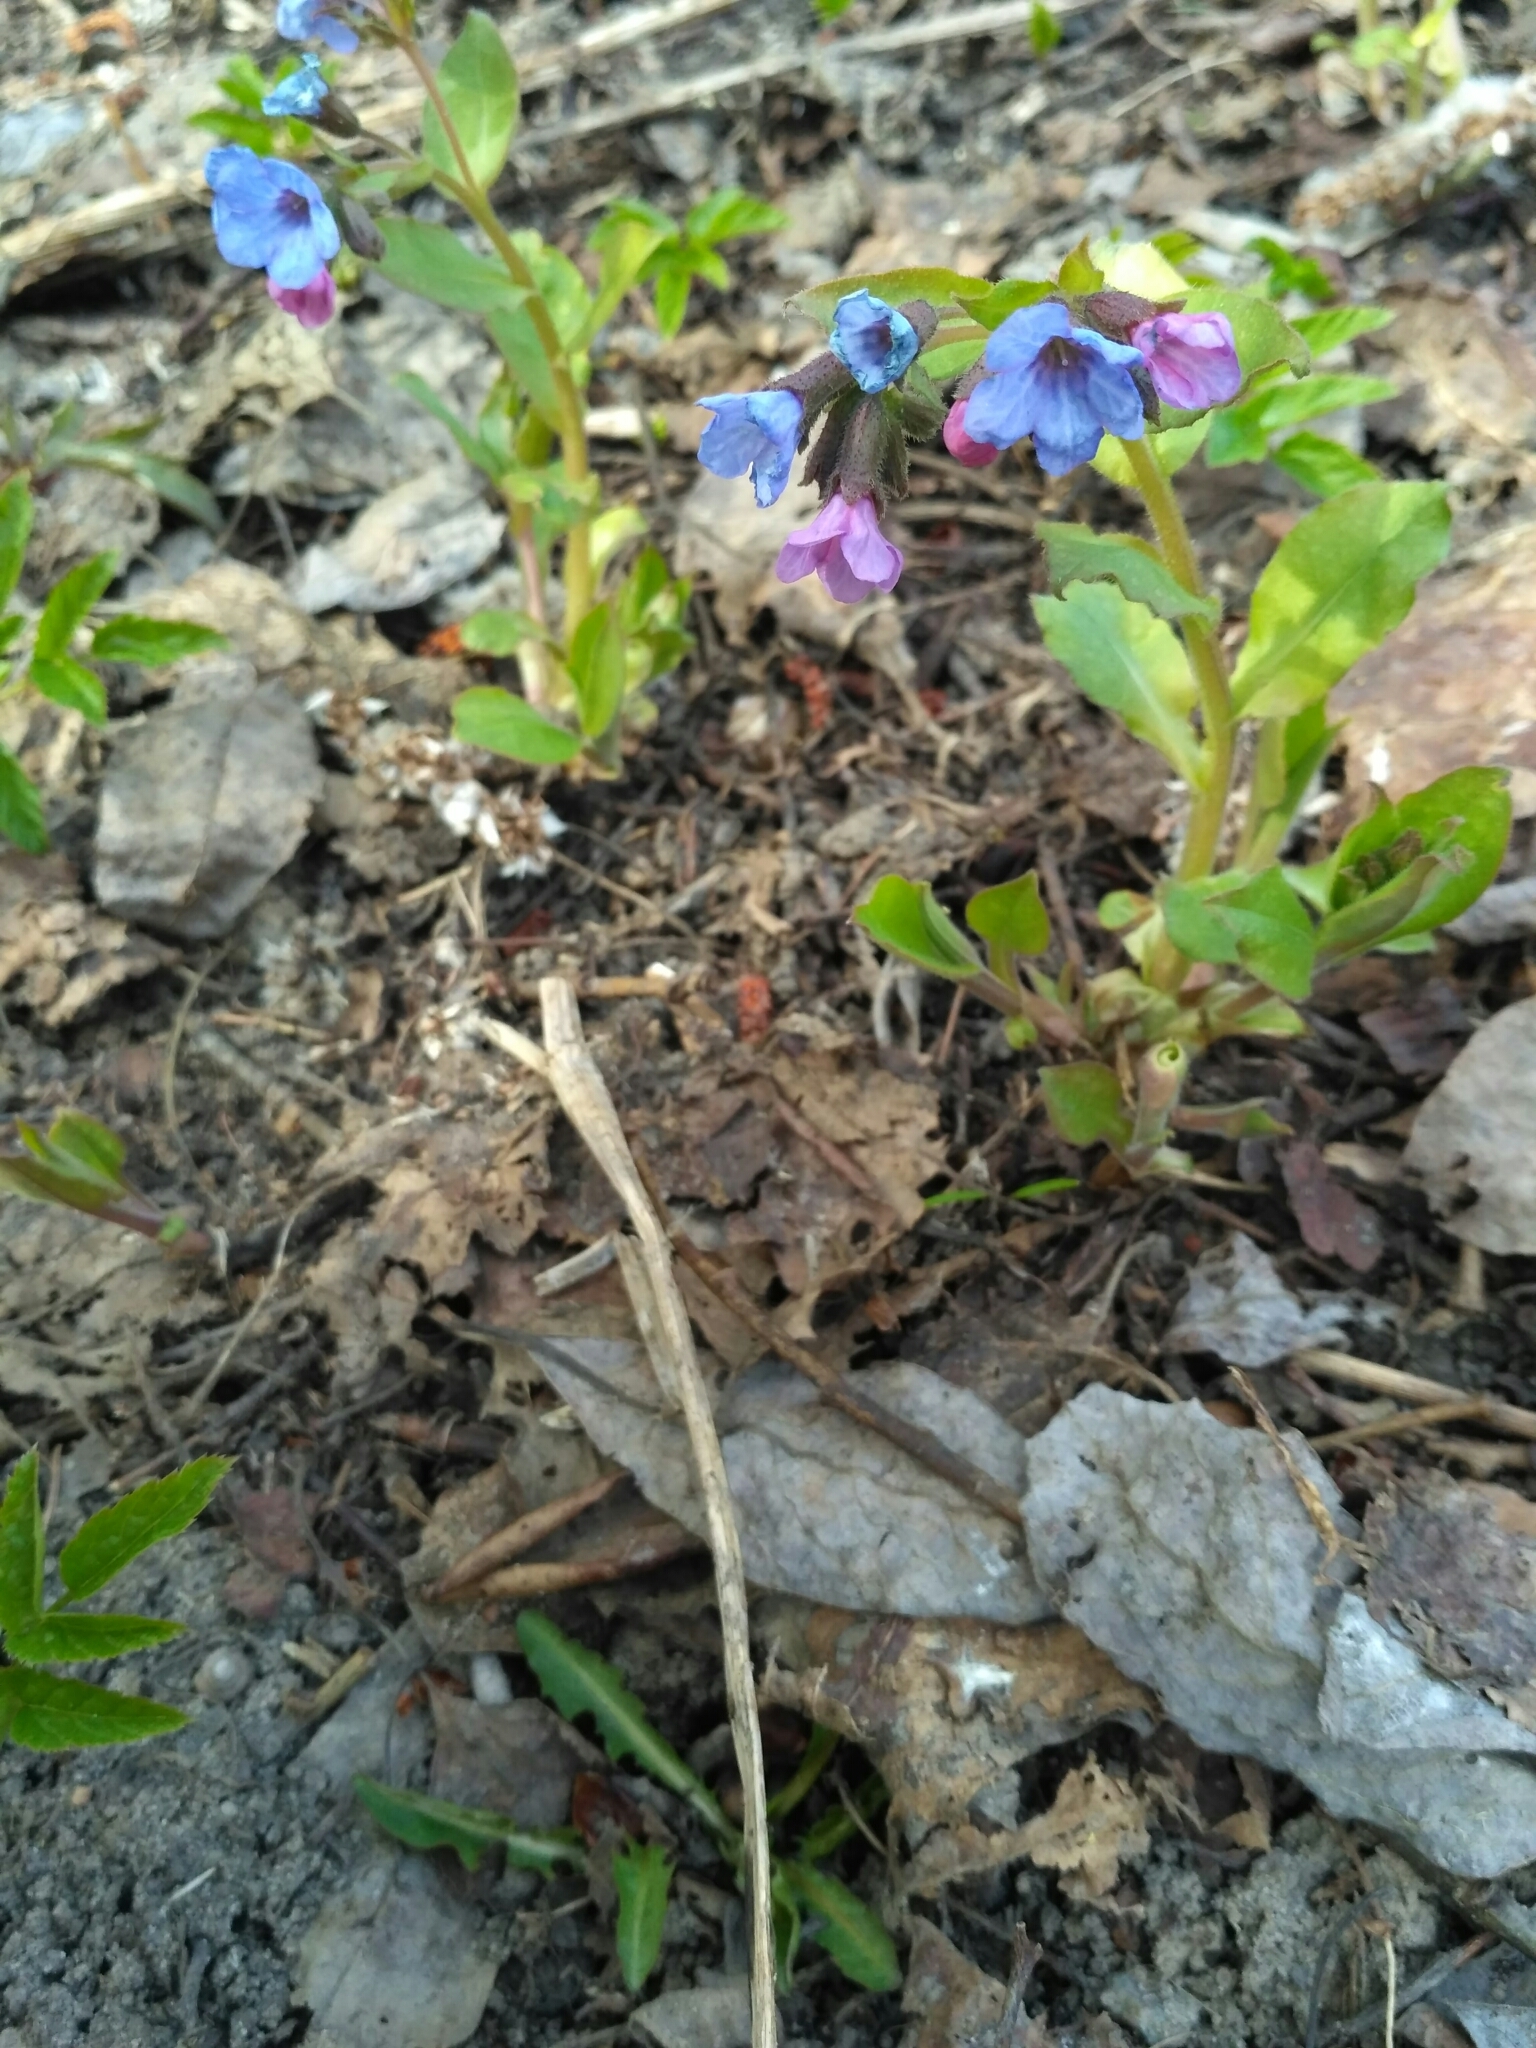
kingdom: Plantae
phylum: Tracheophyta
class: Magnoliopsida
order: Boraginales
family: Boraginaceae
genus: Pulmonaria
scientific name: Pulmonaria obscura
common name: Suffolk lungwort
